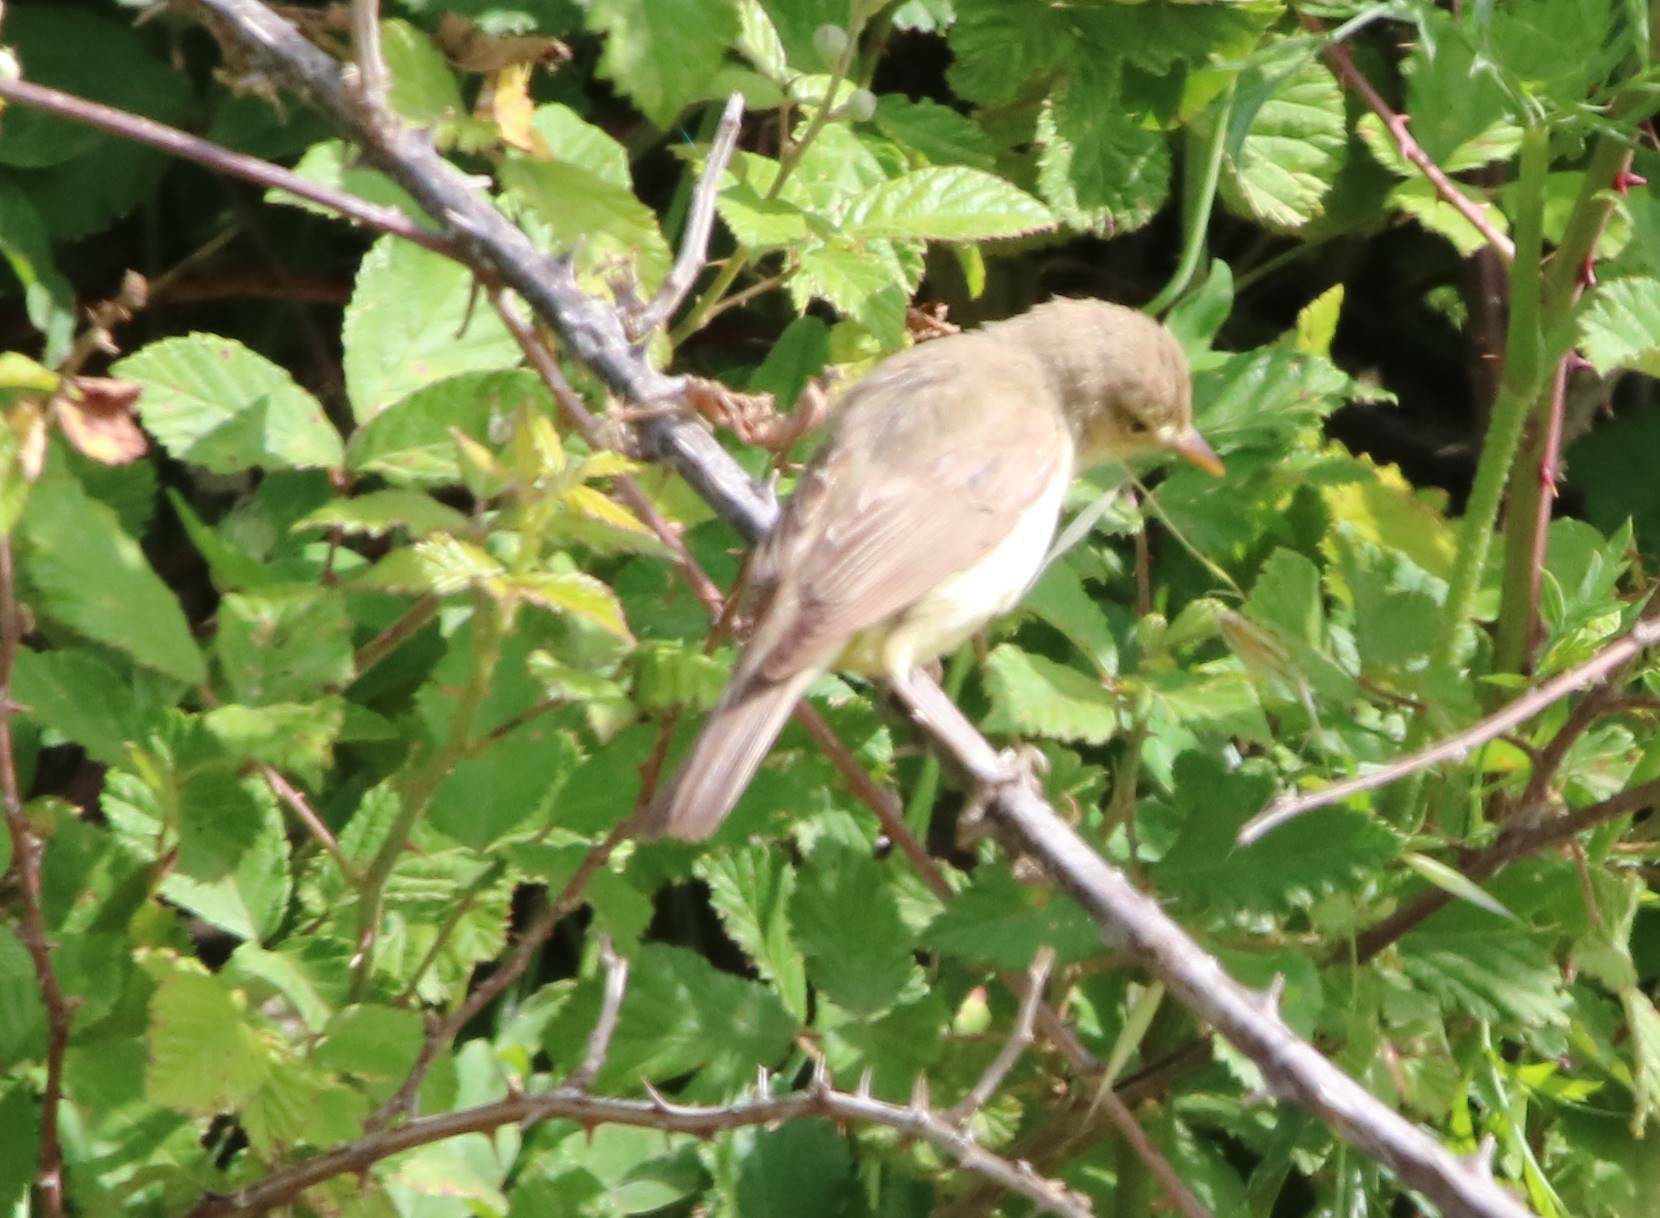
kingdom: Animalia
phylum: Chordata
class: Aves
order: Passeriformes
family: Acrocephalidae
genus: Hippolais
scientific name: Hippolais polyglotta
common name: Melodious warbler
